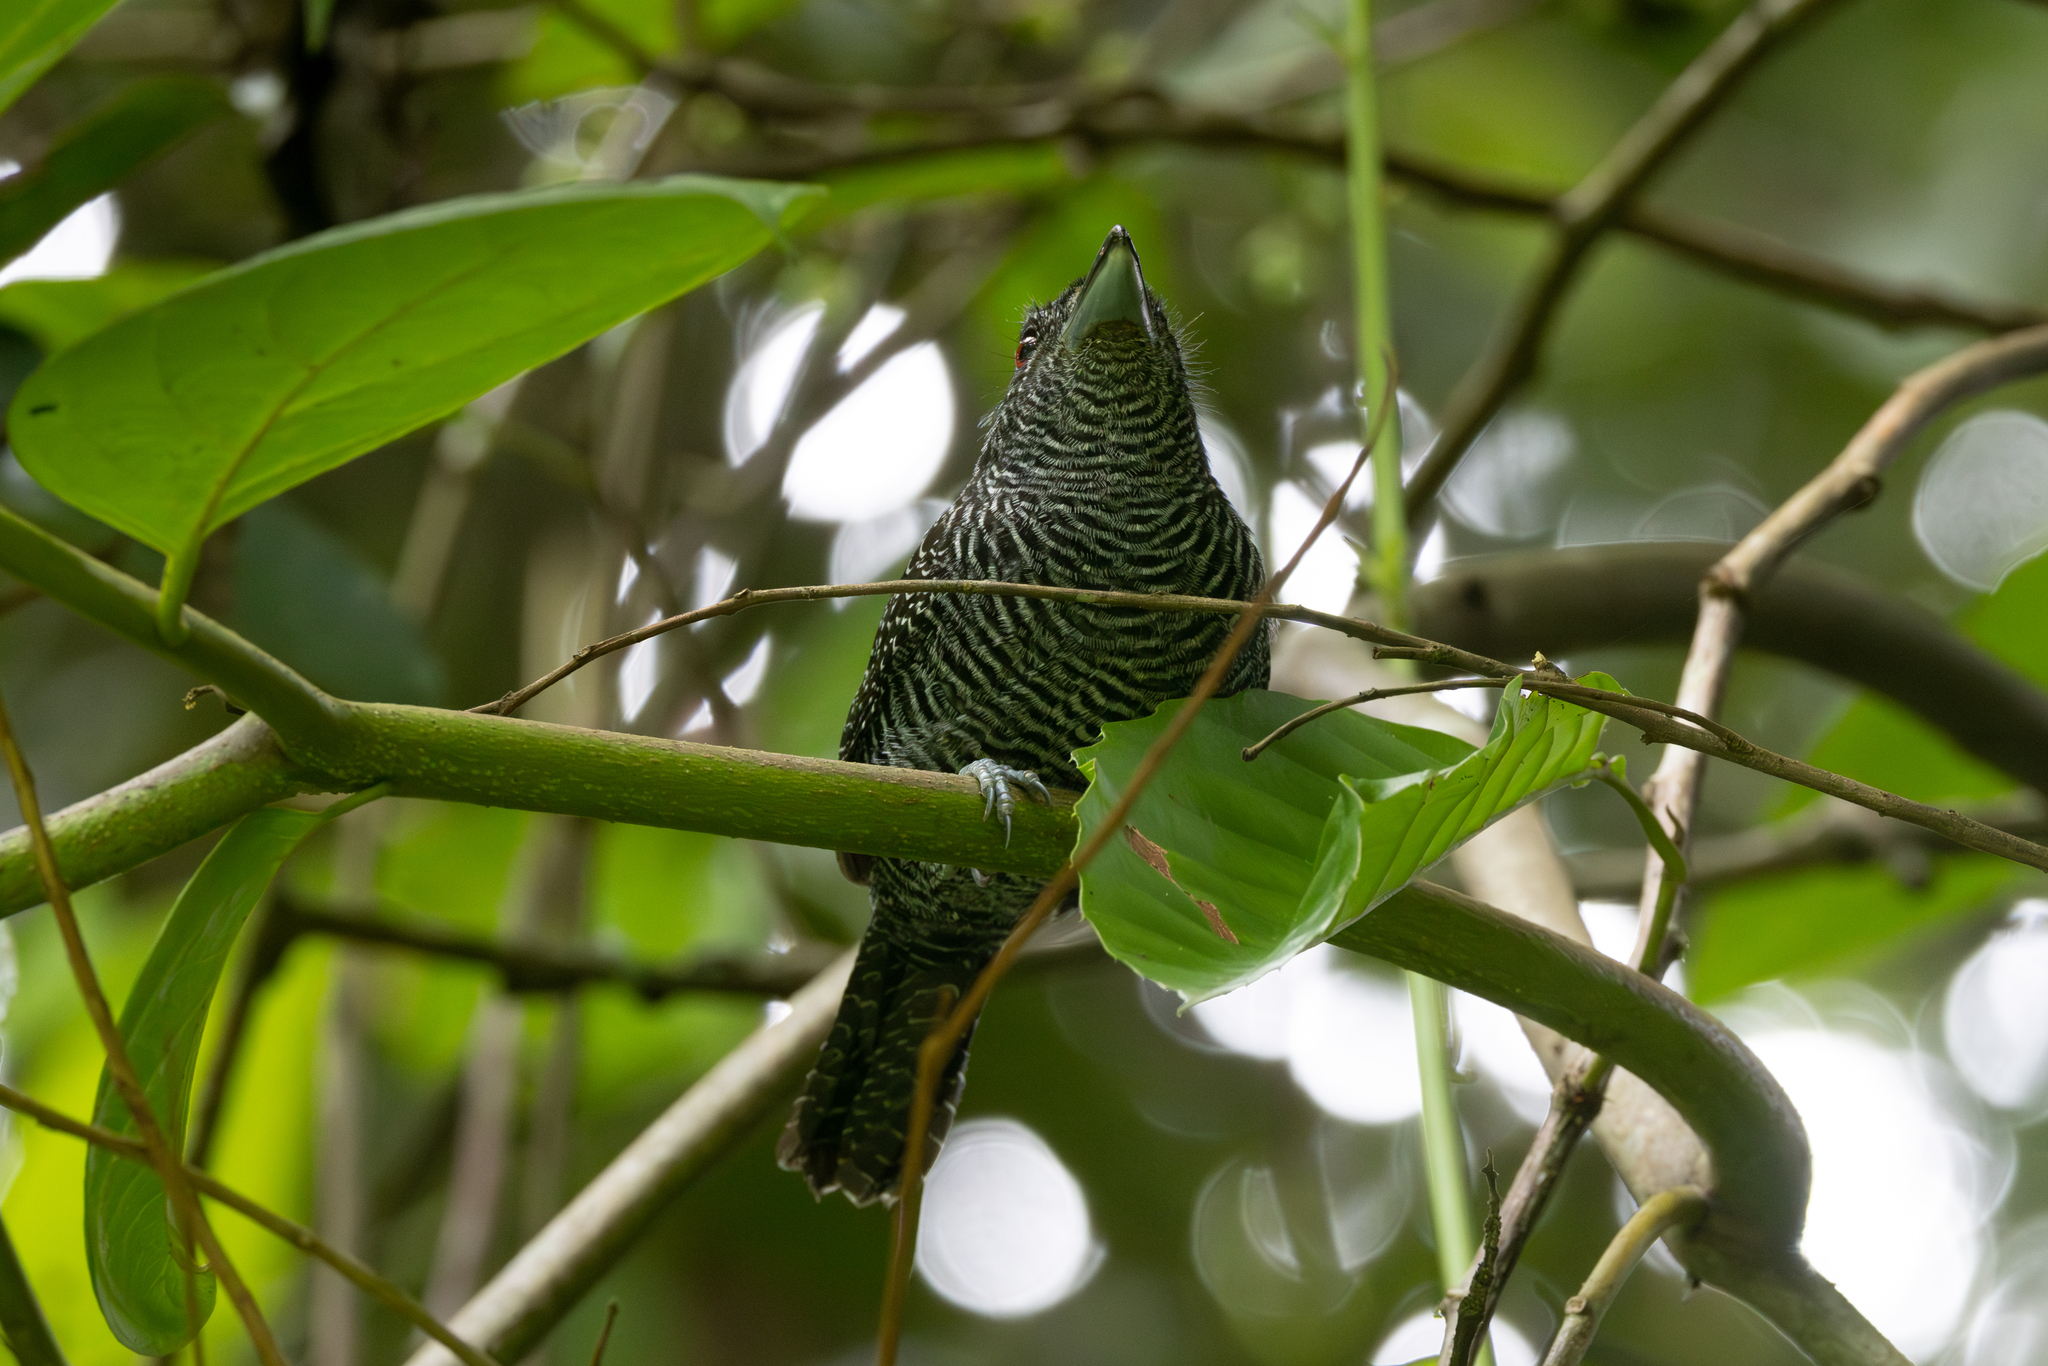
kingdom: Animalia
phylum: Chordata
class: Aves
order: Passeriformes
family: Thamnophilidae
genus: Cymbilaimus
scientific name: Cymbilaimus lineatus
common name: Fasciated antshrike
